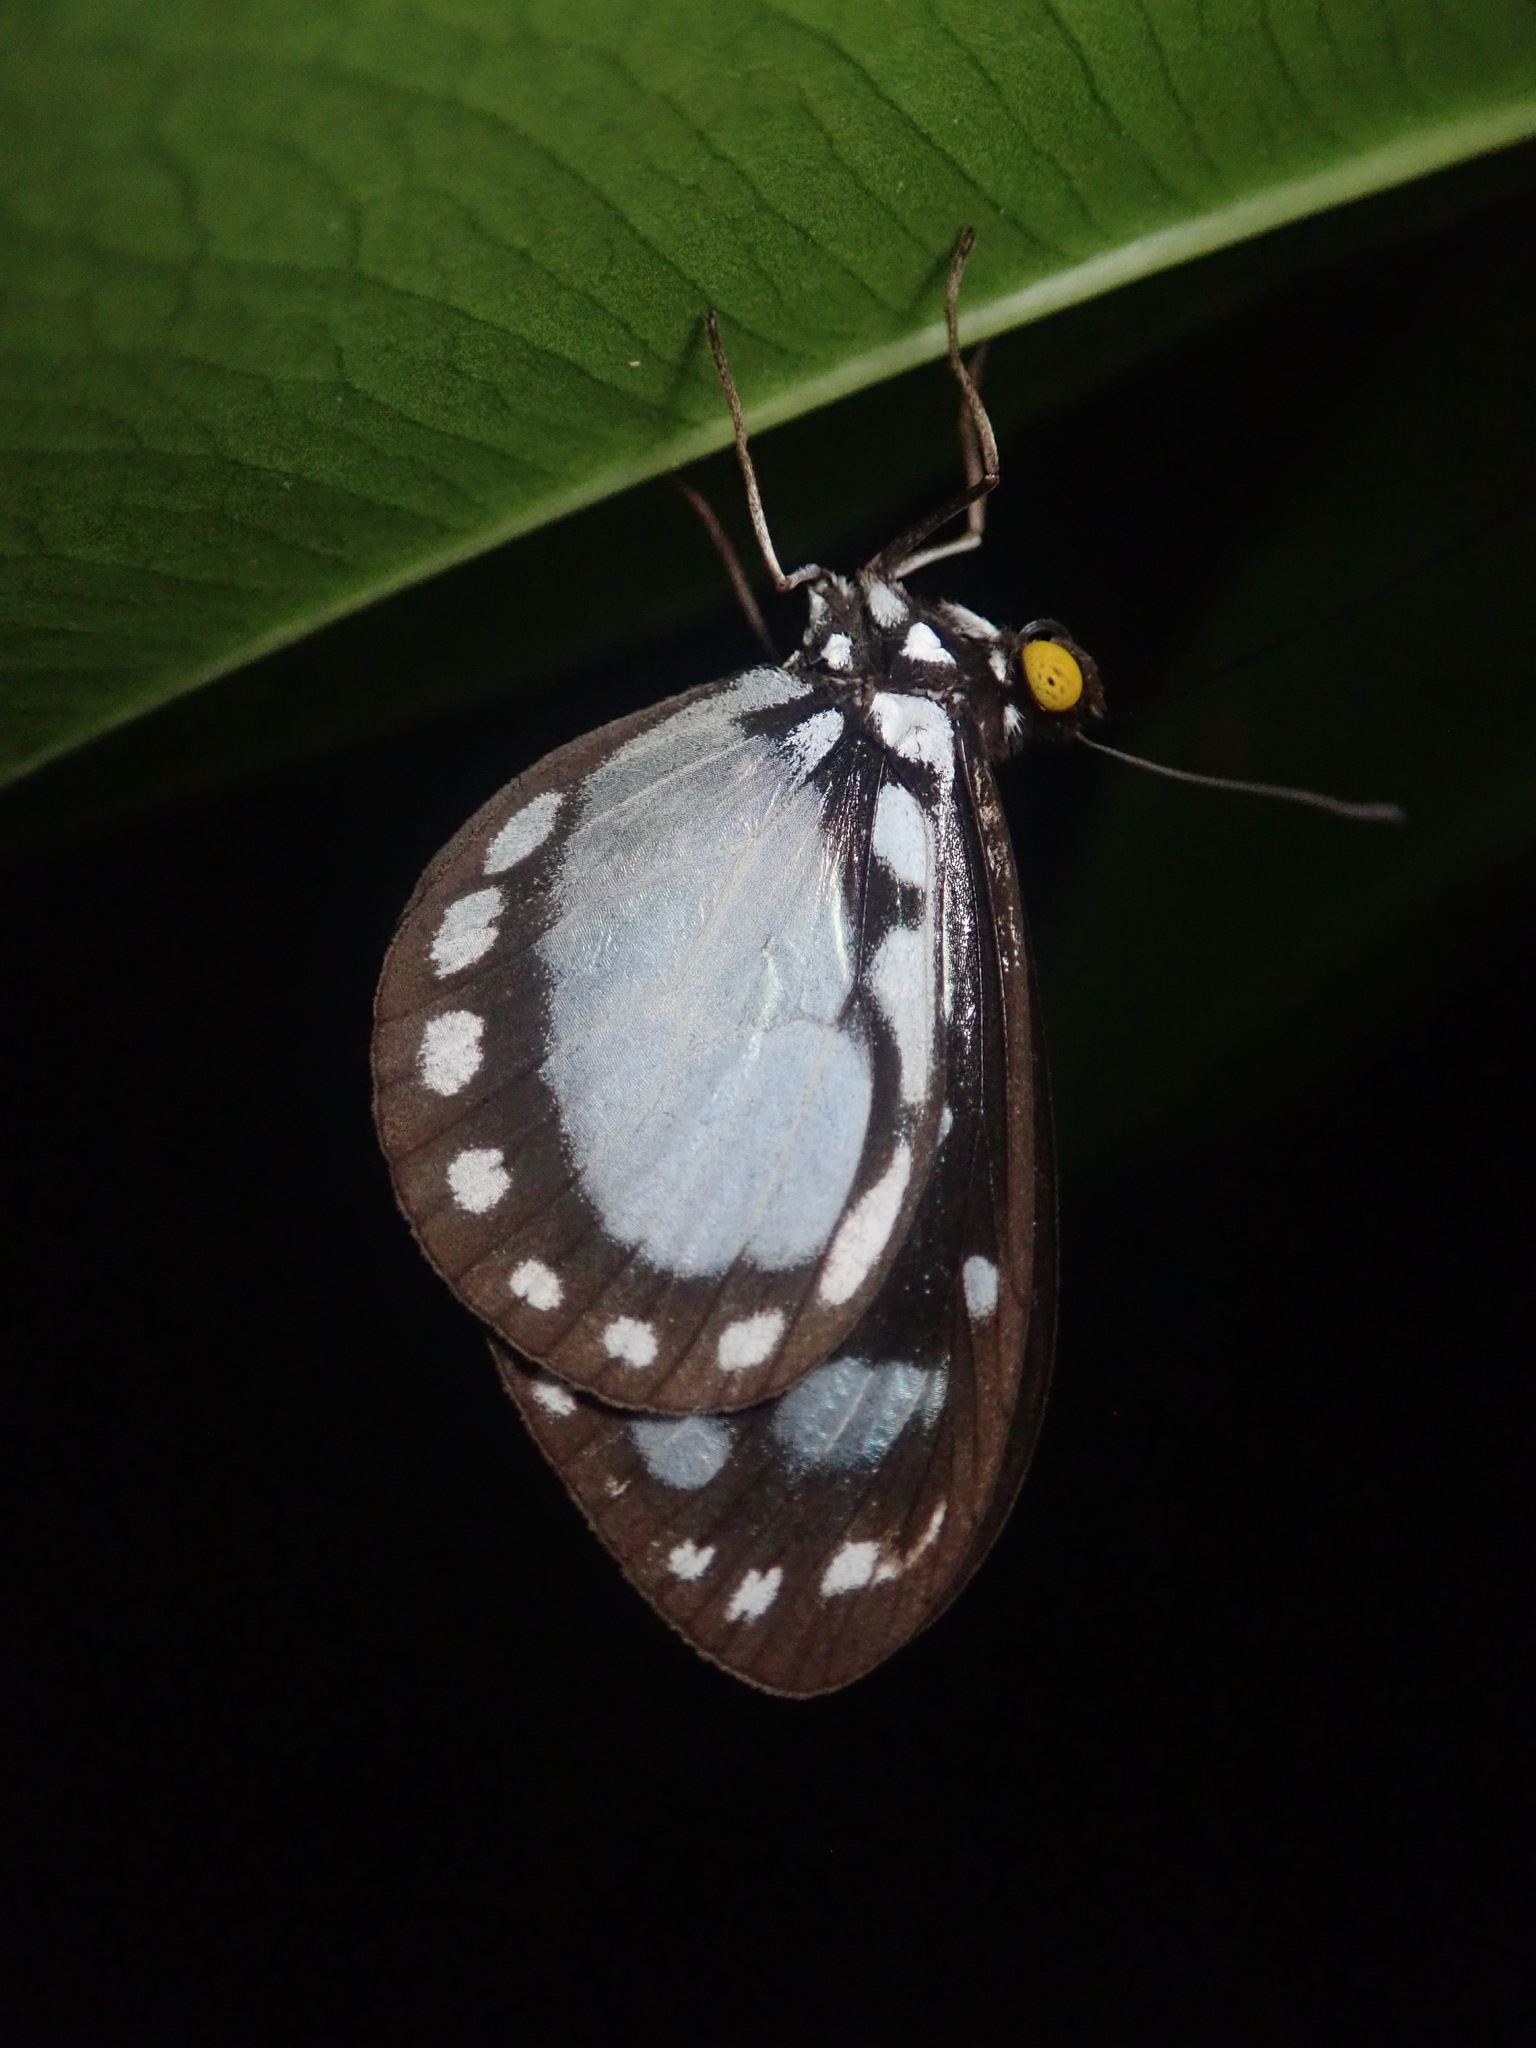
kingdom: Animalia
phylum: Arthropoda
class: Insecta
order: Lepidoptera
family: Nymphalidae
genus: Tellervo
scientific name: Tellervo zoilus
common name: Hamadryad
